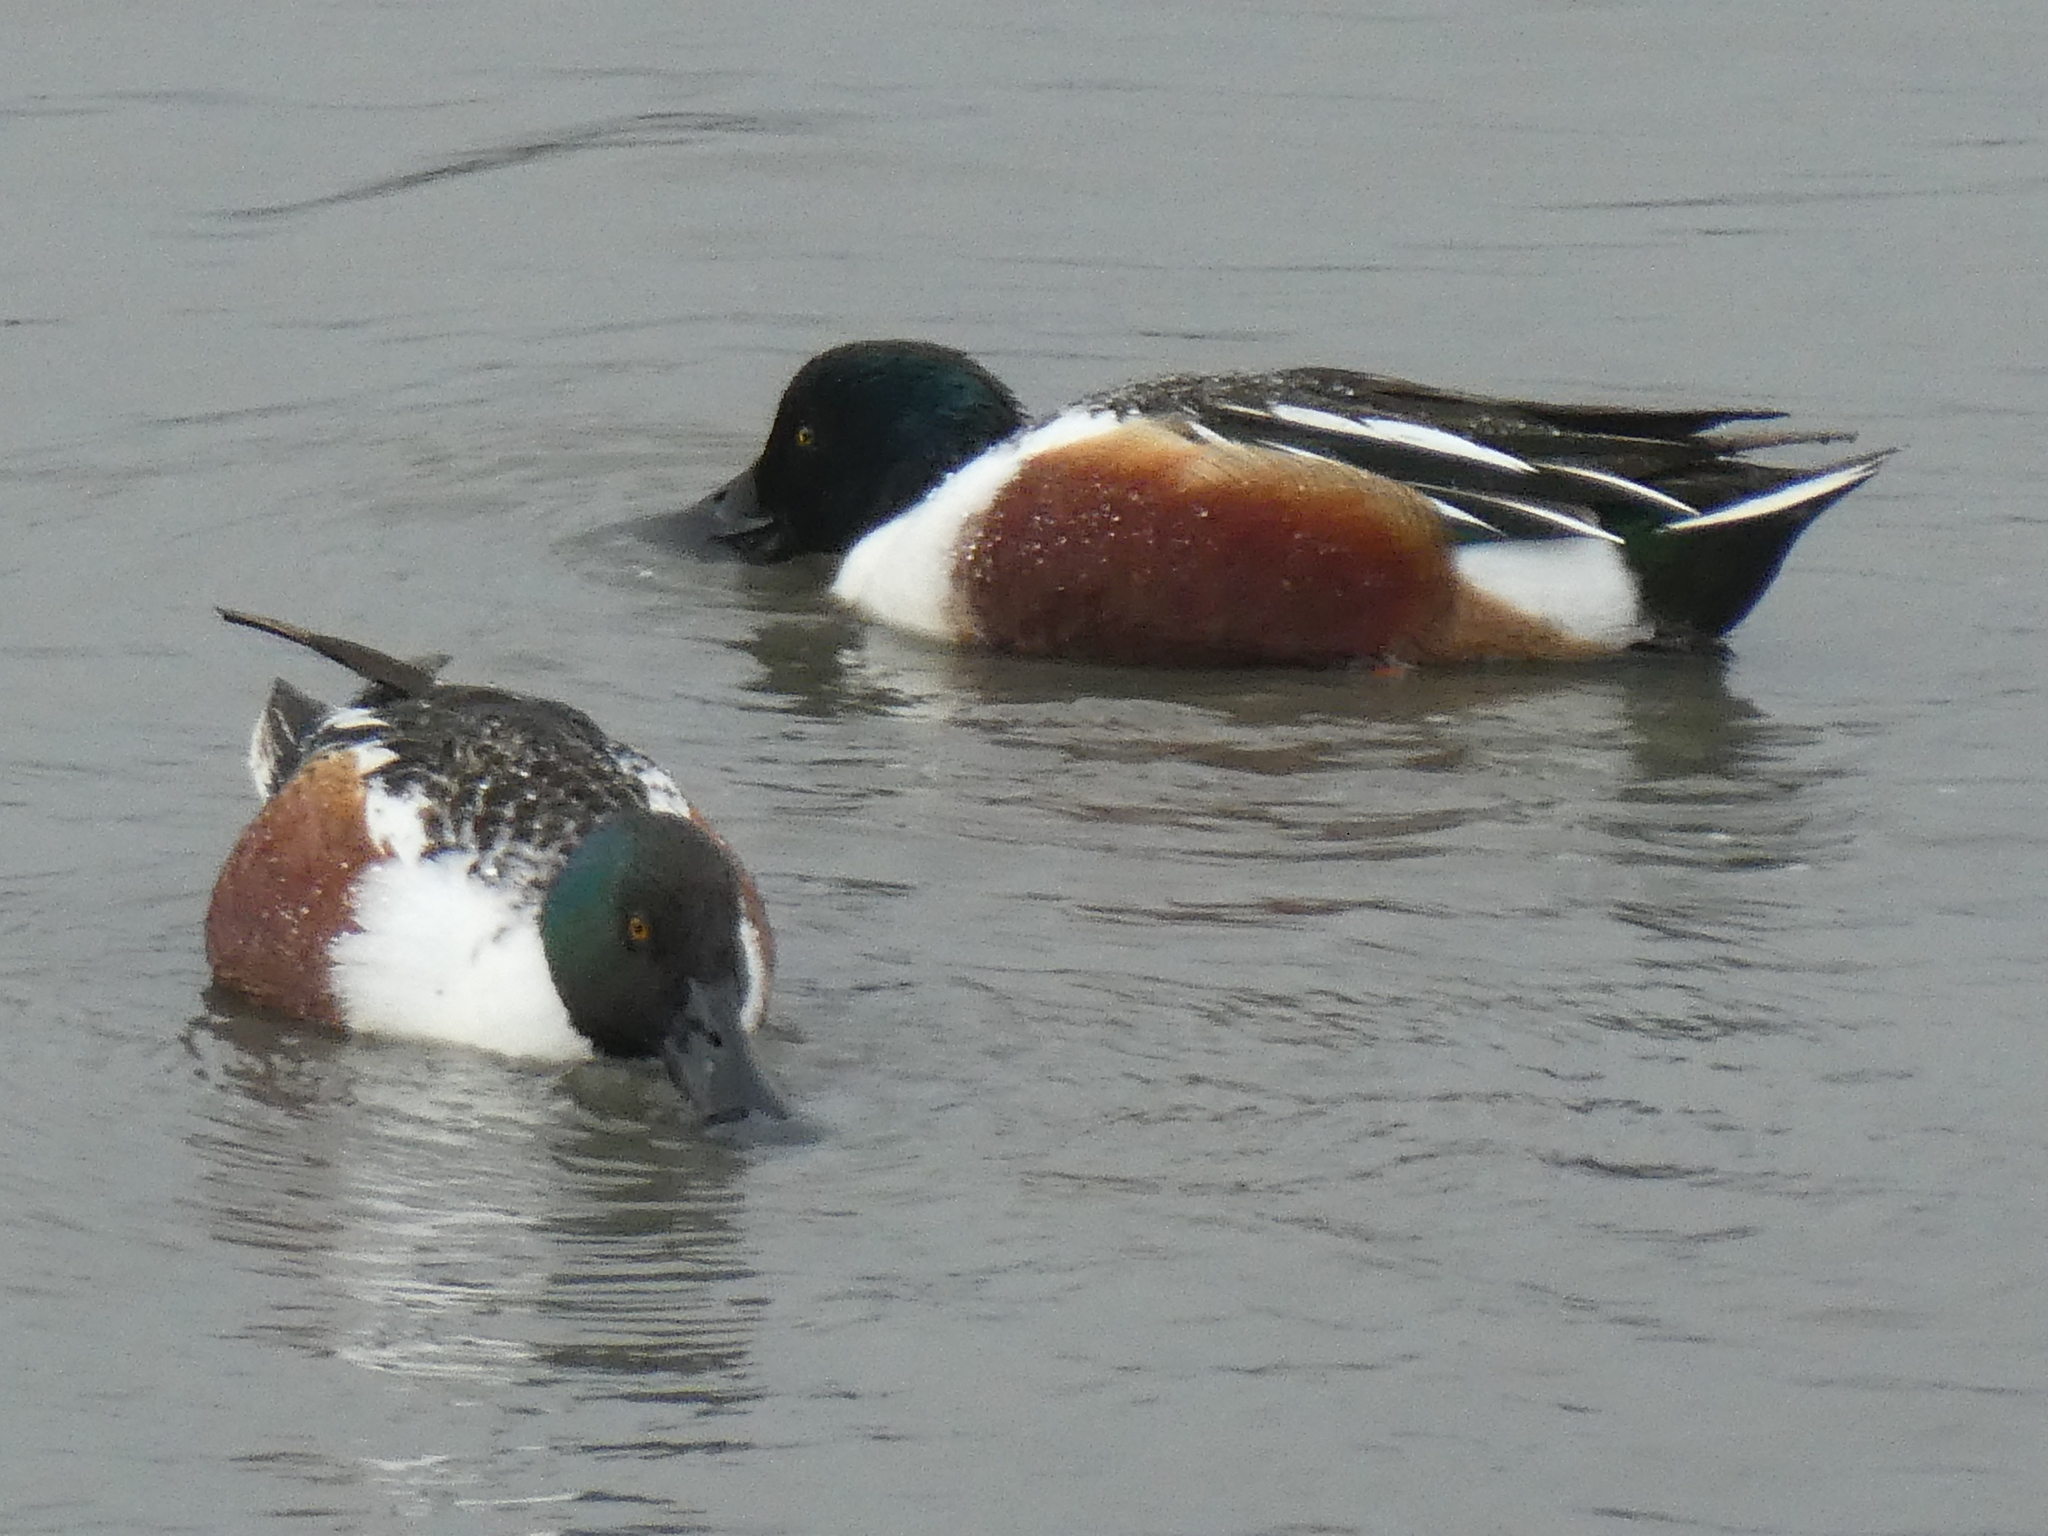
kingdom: Animalia
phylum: Chordata
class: Aves
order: Anseriformes
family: Anatidae
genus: Spatula
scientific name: Spatula clypeata
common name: Northern shoveler
